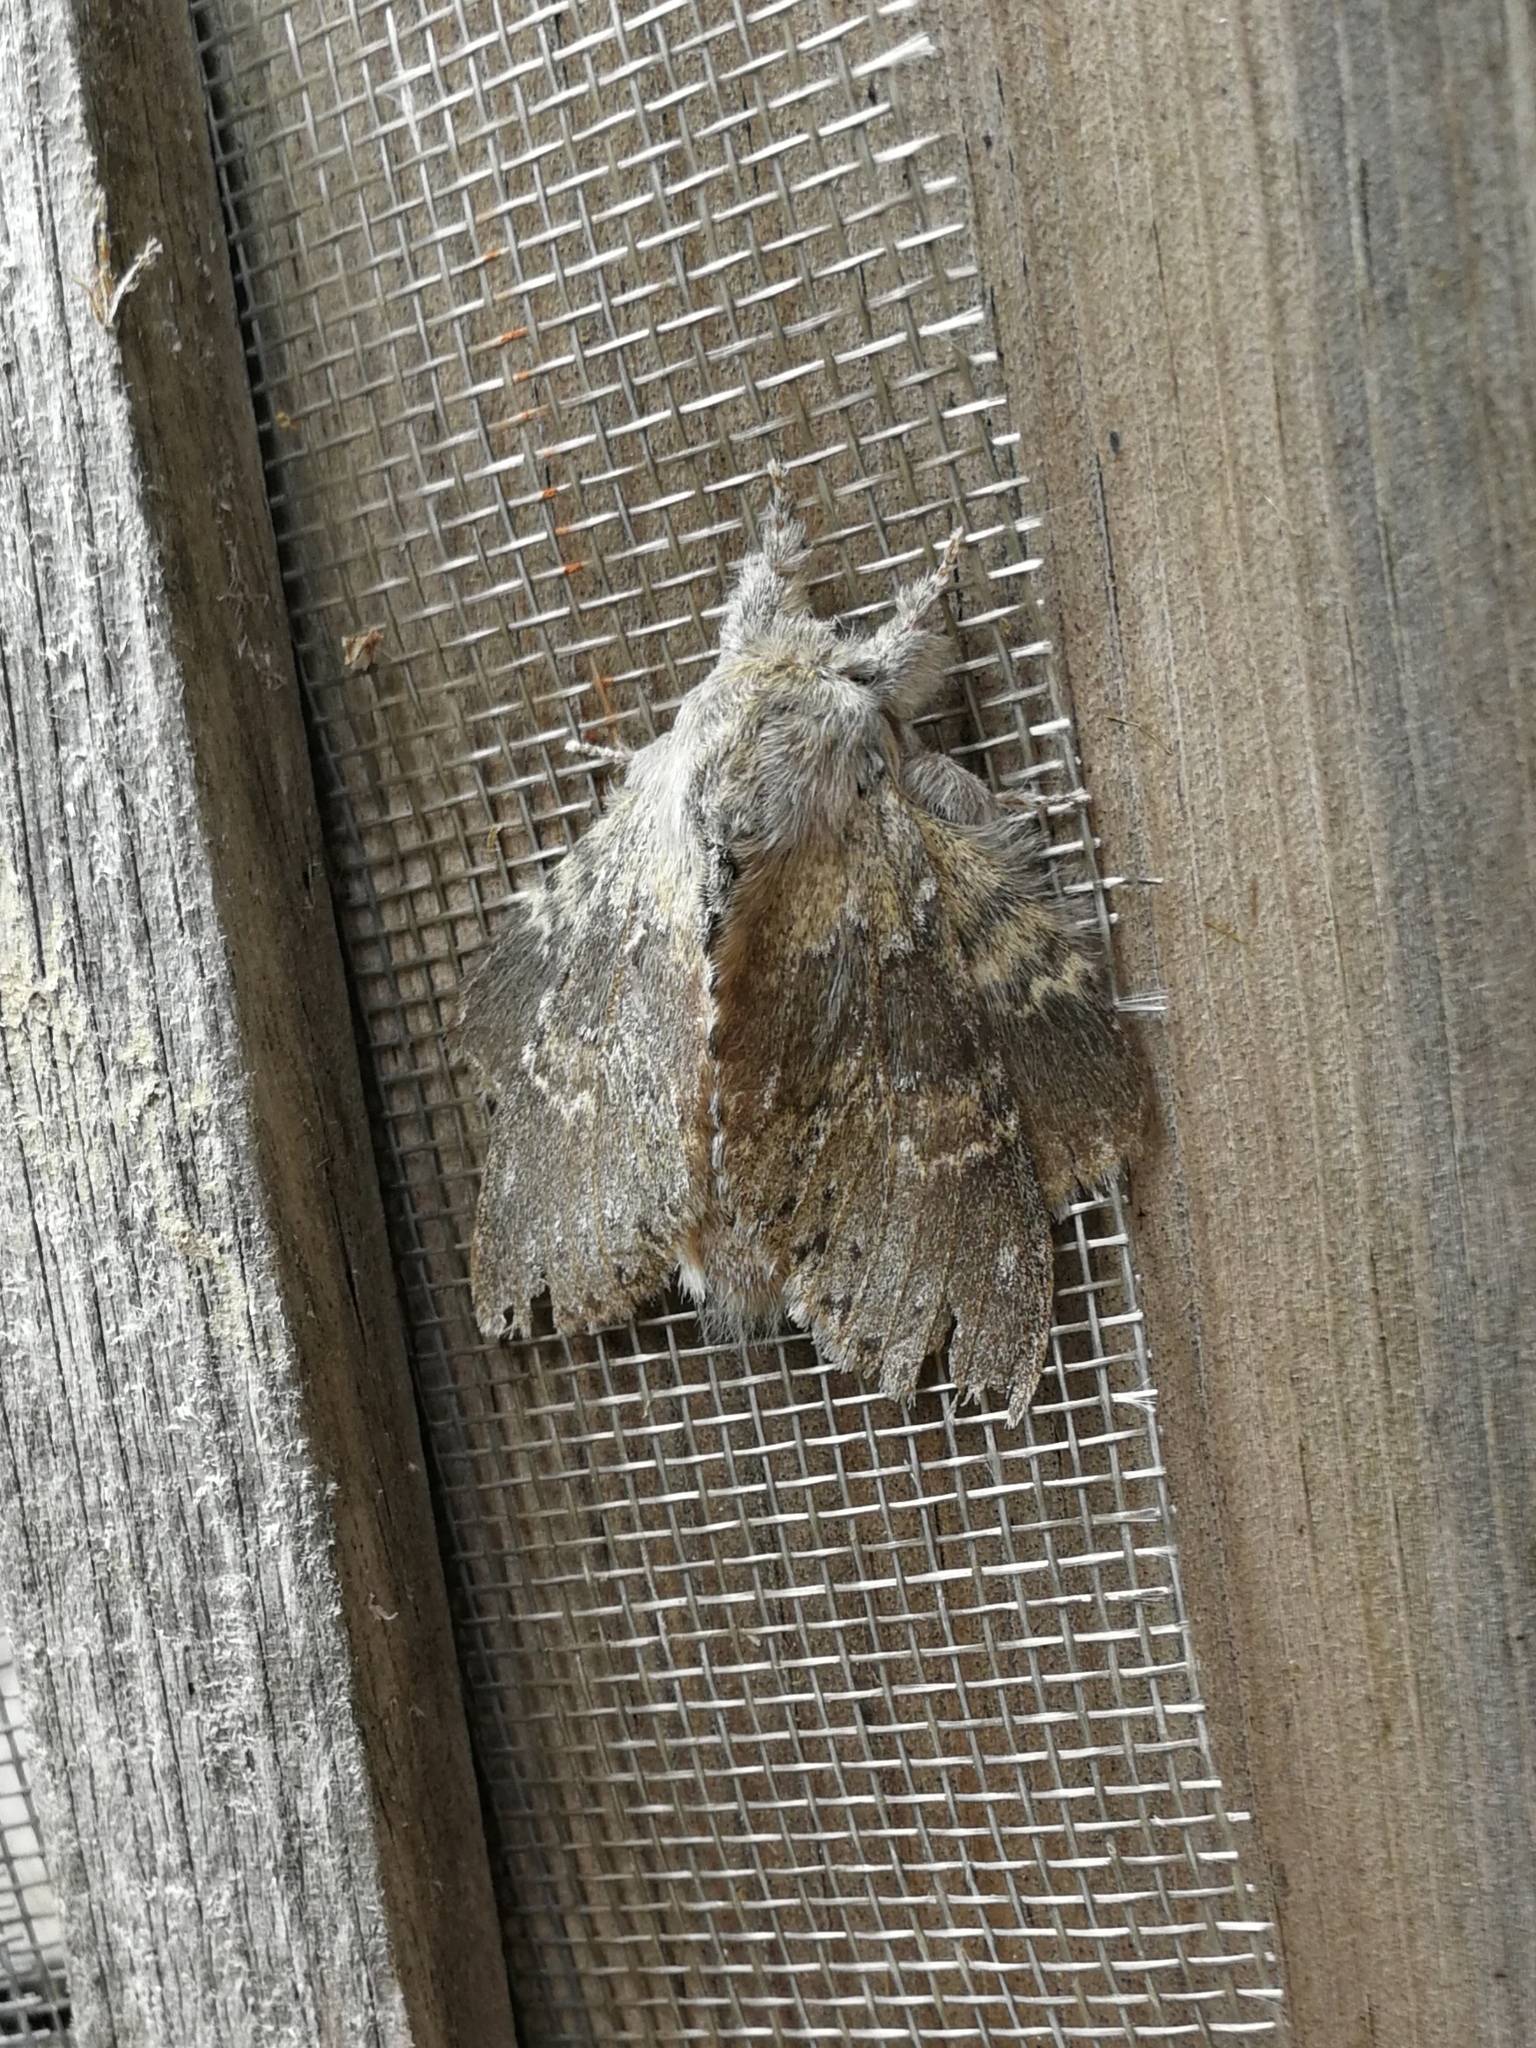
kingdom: Animalia
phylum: Arthropoda
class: Insecta
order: Lepidoptera
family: Notodontidae
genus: Stauropus
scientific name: Stauropus fagi
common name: Lobster moth
